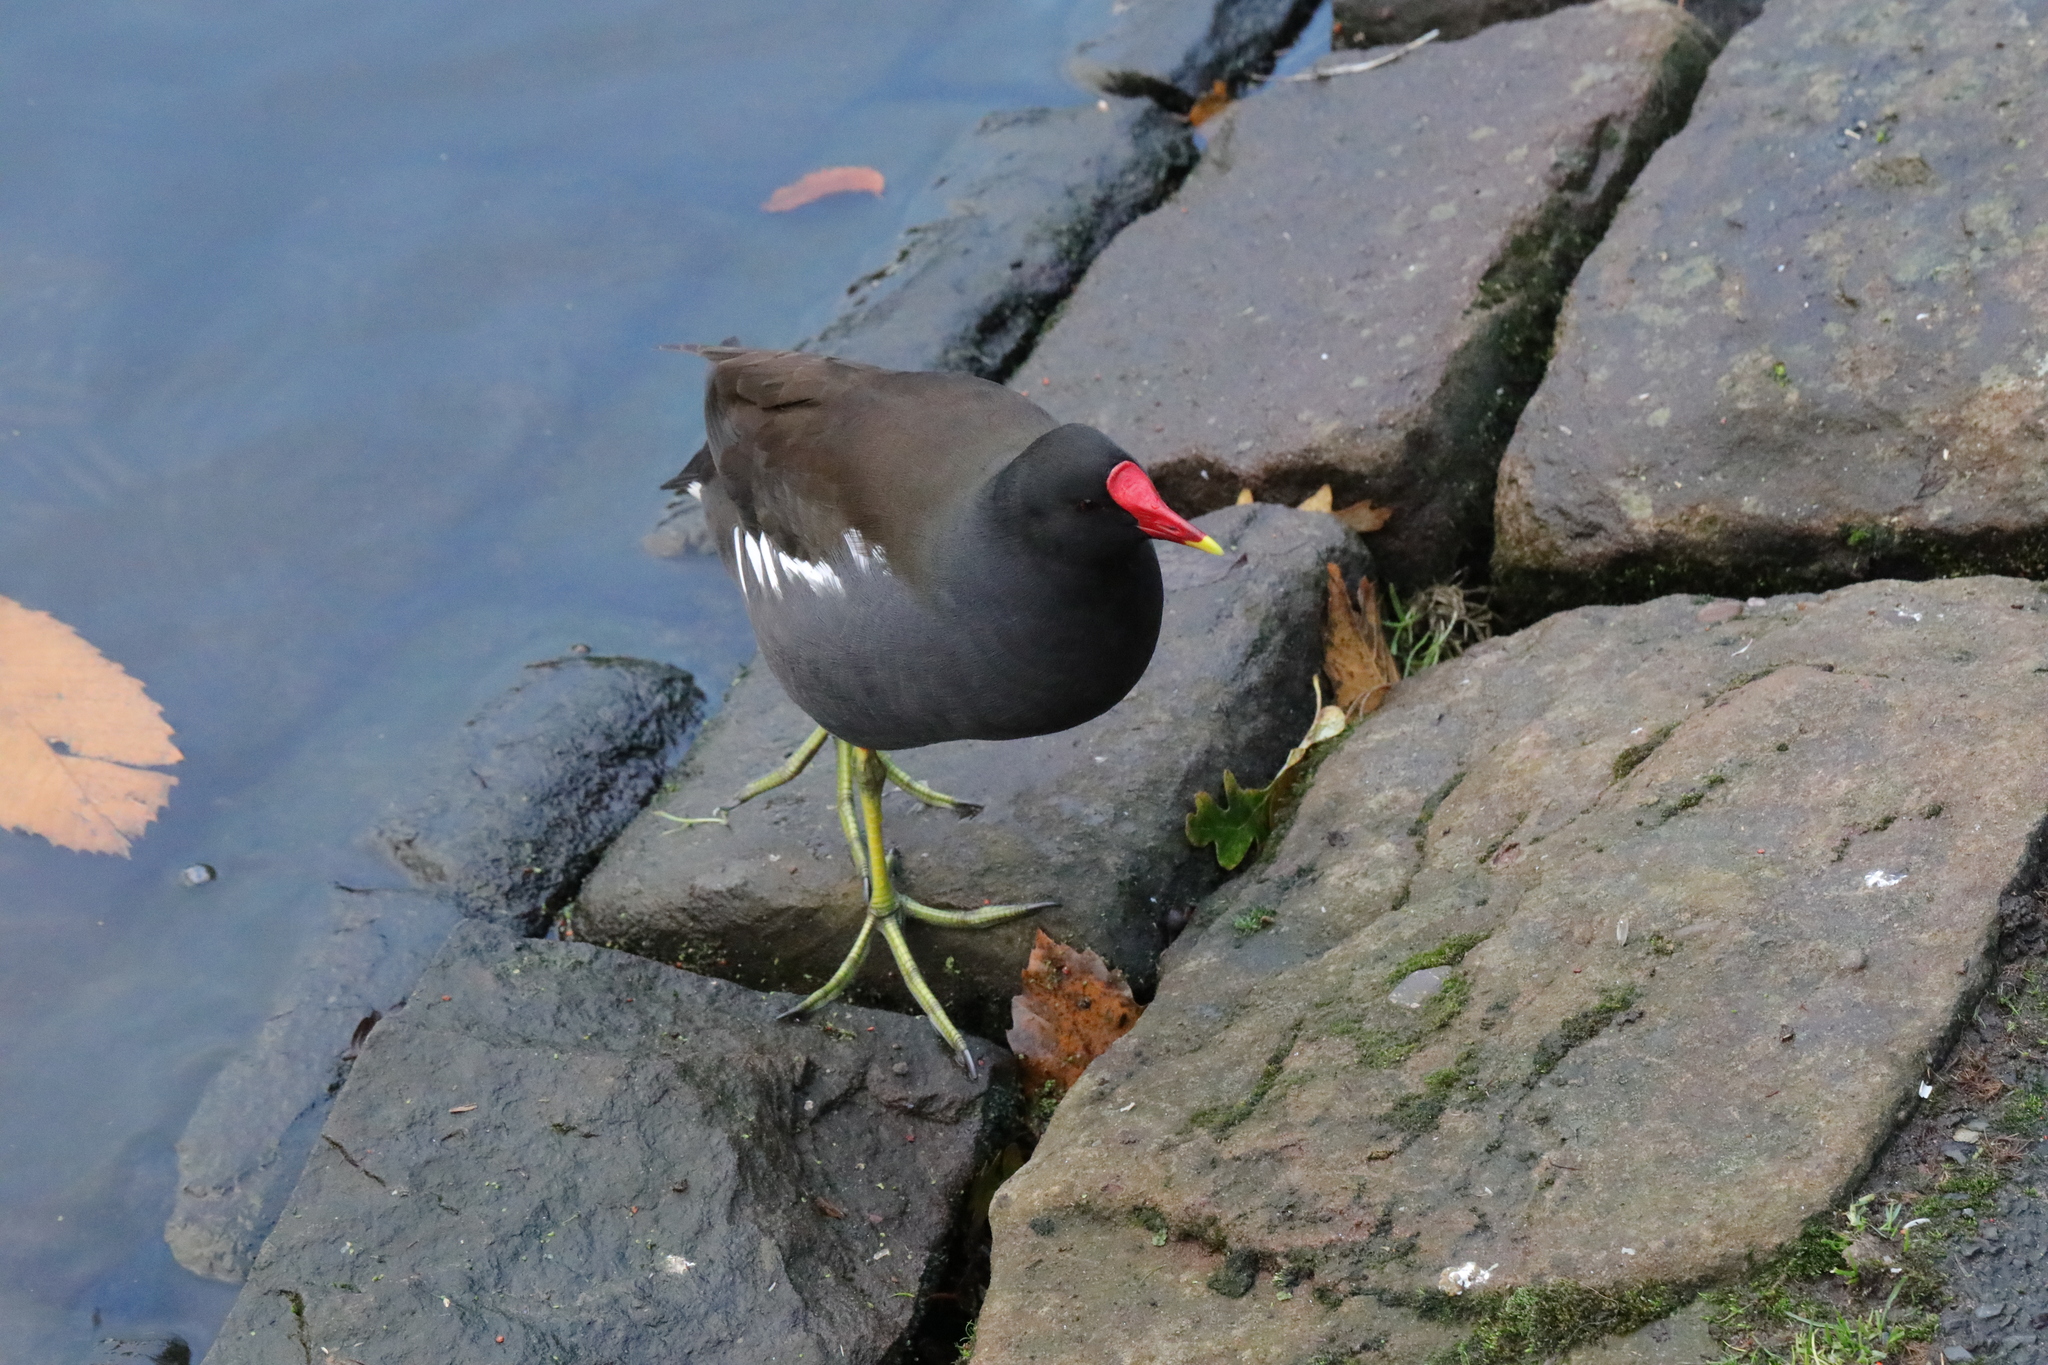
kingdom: Animalia
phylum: Chordata
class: Aves
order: Gruiformes
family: Rallidae
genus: Gallinula
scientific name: Gallinula chloropus
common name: Common moorhen
